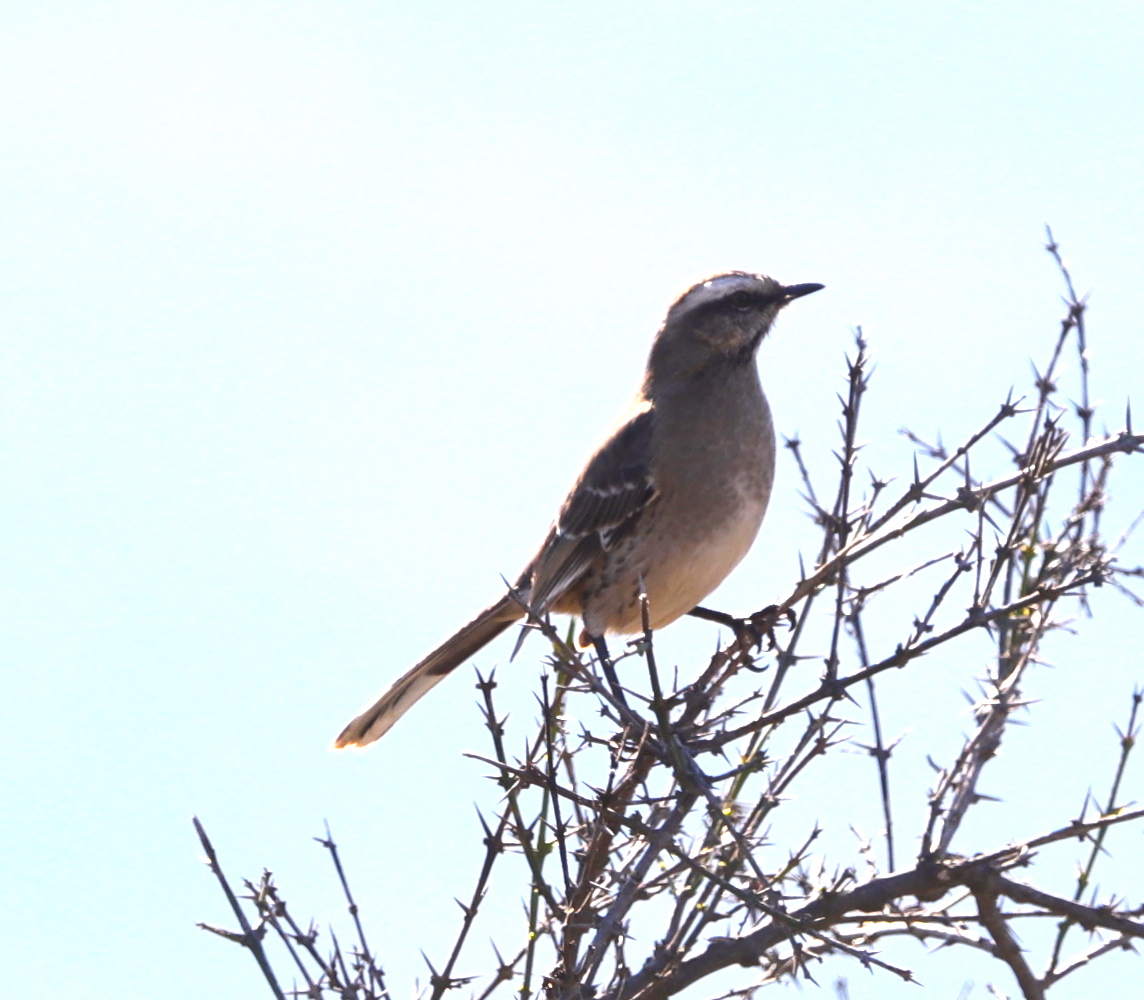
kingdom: Animalia
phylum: Chordata
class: Aves
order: Passeriformes
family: Mimidae
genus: Mimus
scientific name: Mimus thenca
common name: Chilean mockingbird
